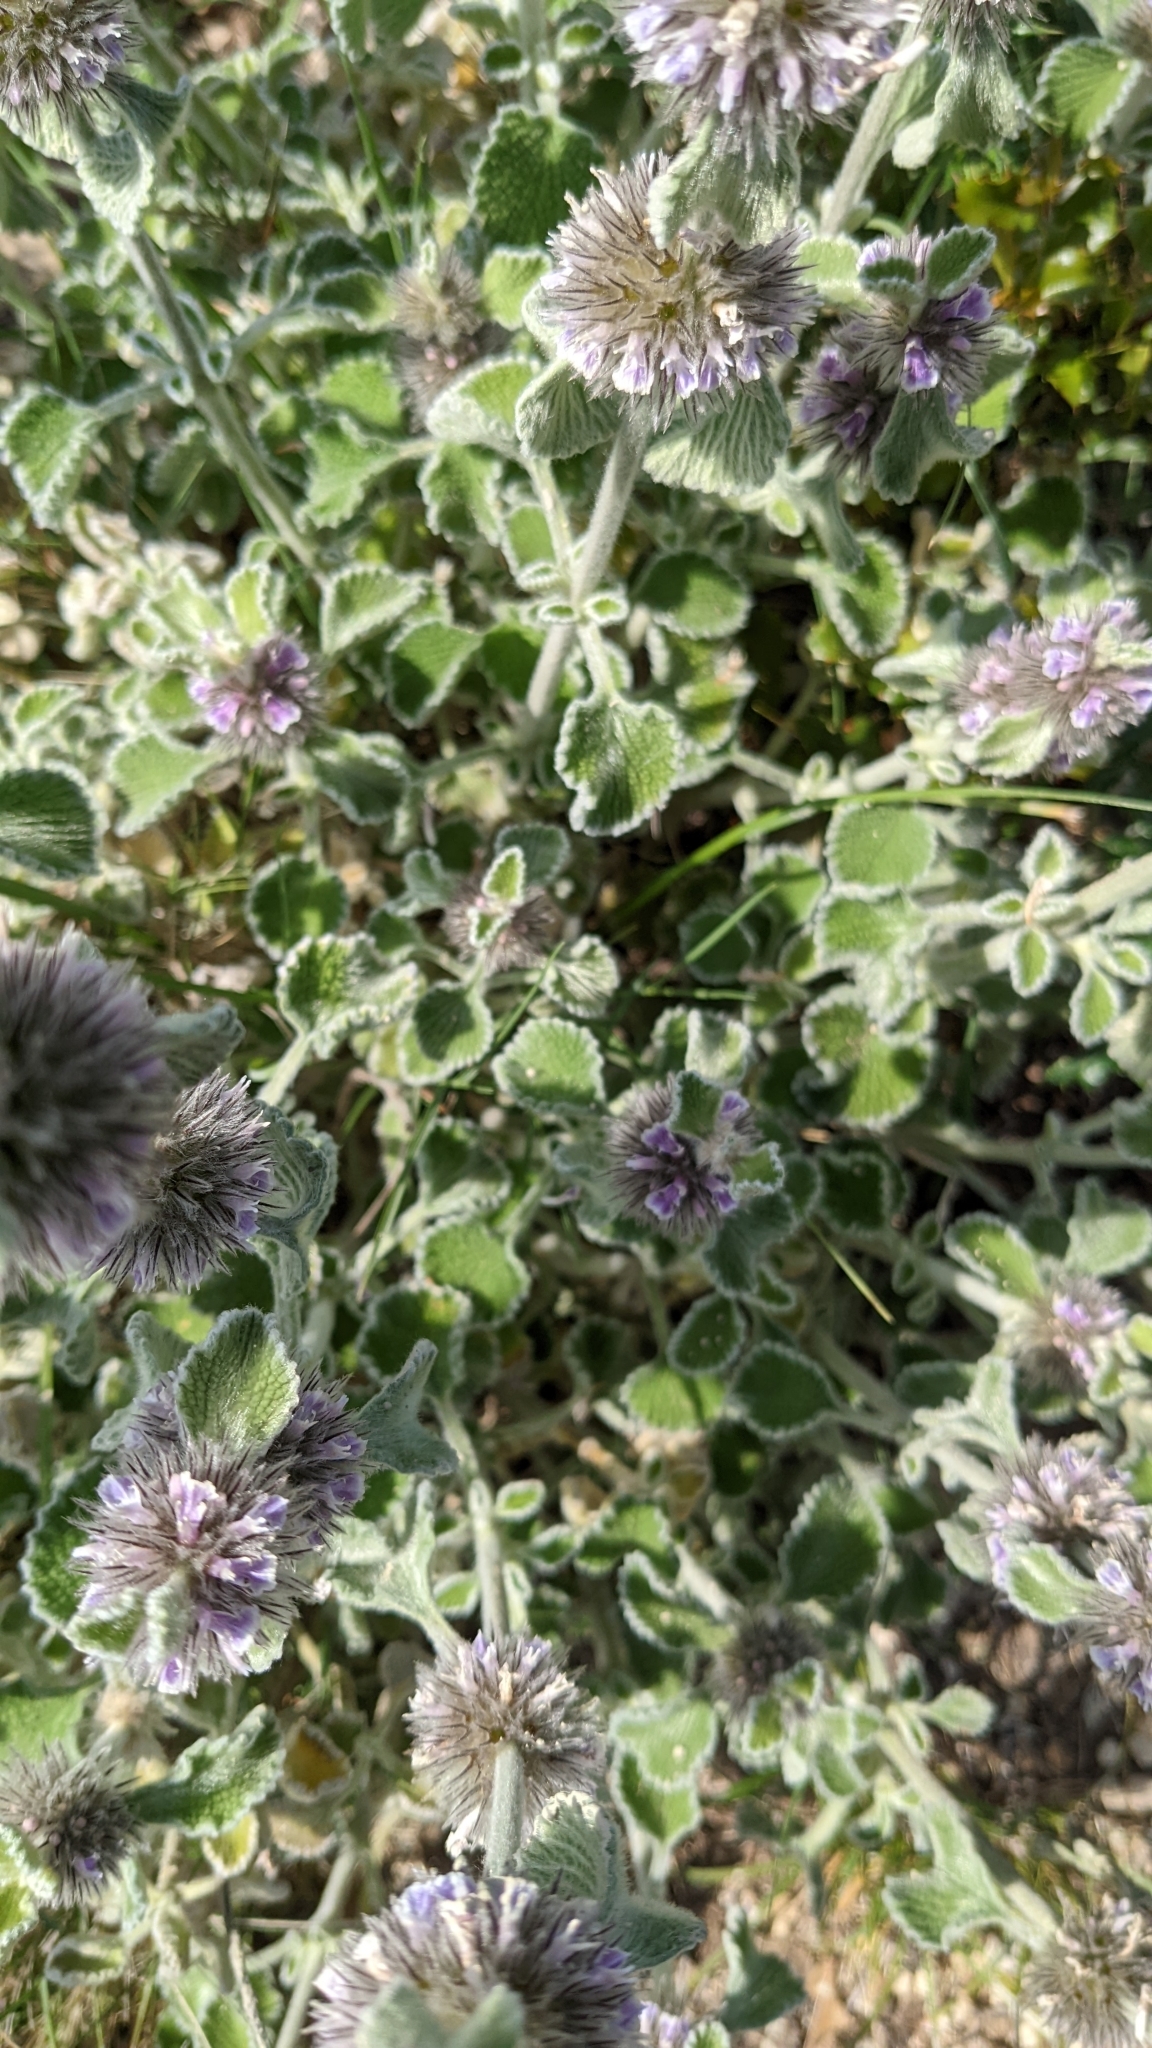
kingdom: Plantae
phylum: Tracheophyta
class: Magnoliopsida
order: Lamiales
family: Lamiaceae
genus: Marrubium
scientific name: Marrubium supinum
